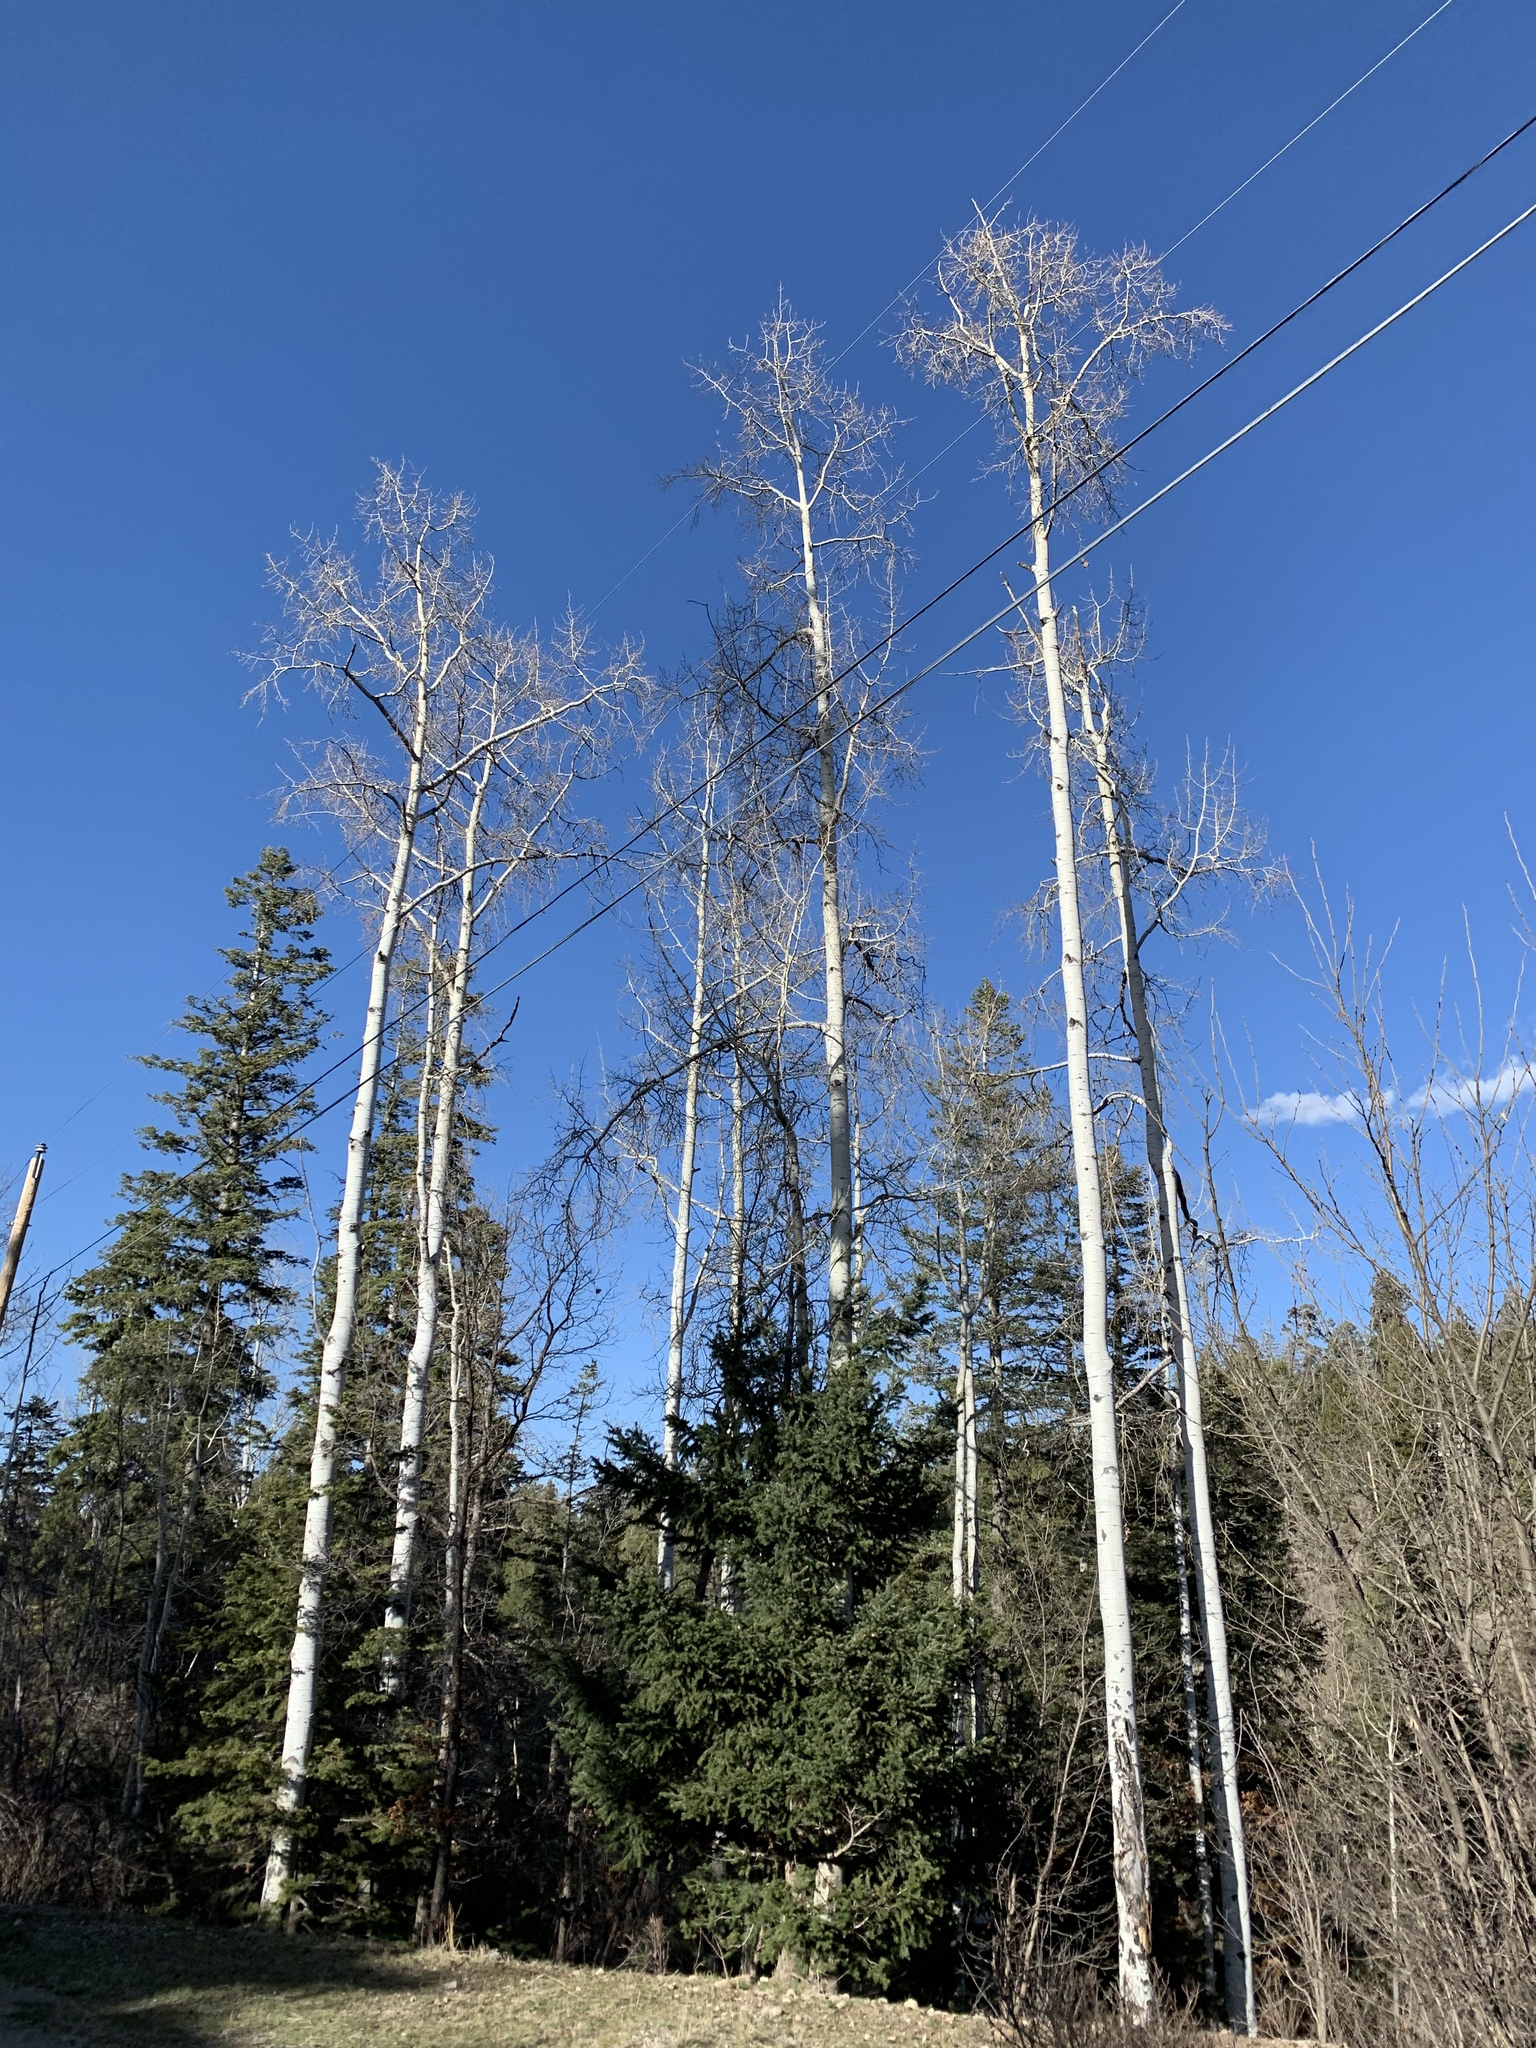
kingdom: Plantae
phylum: Tracheophyta
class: Magnoliopsida
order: Malpighiales
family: Salicaceae
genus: Populus
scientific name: Populus tremuloides
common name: Quaking aspen
